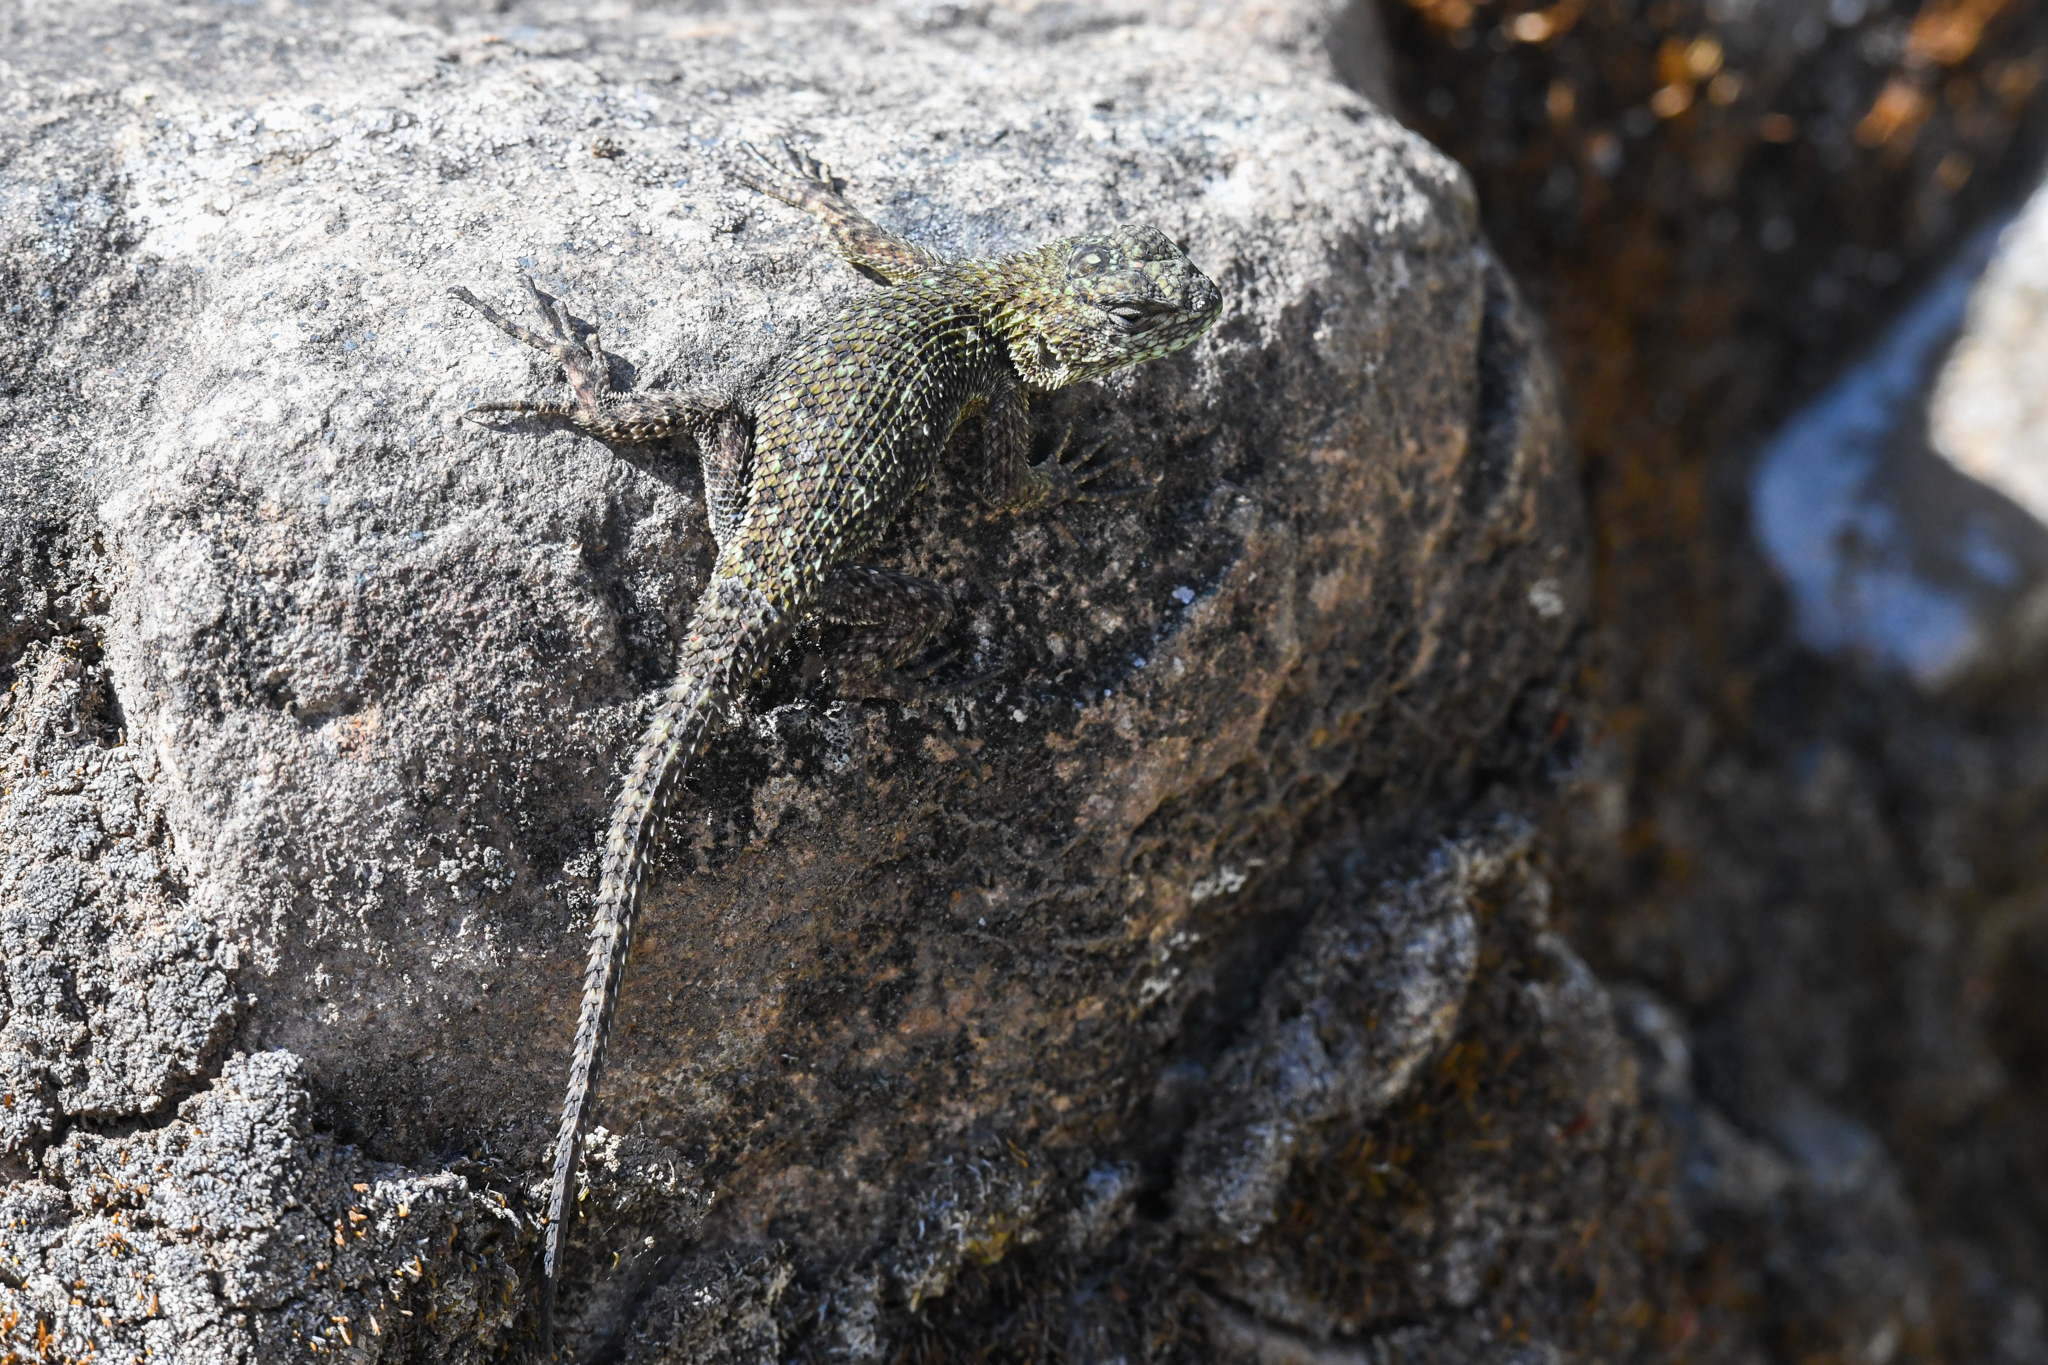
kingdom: Animalia
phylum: Chordata
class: Squamata
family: Phrynosomatidae
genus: Sceloporus
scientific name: Sceloporus malachiticus
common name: Green spiny lizard
